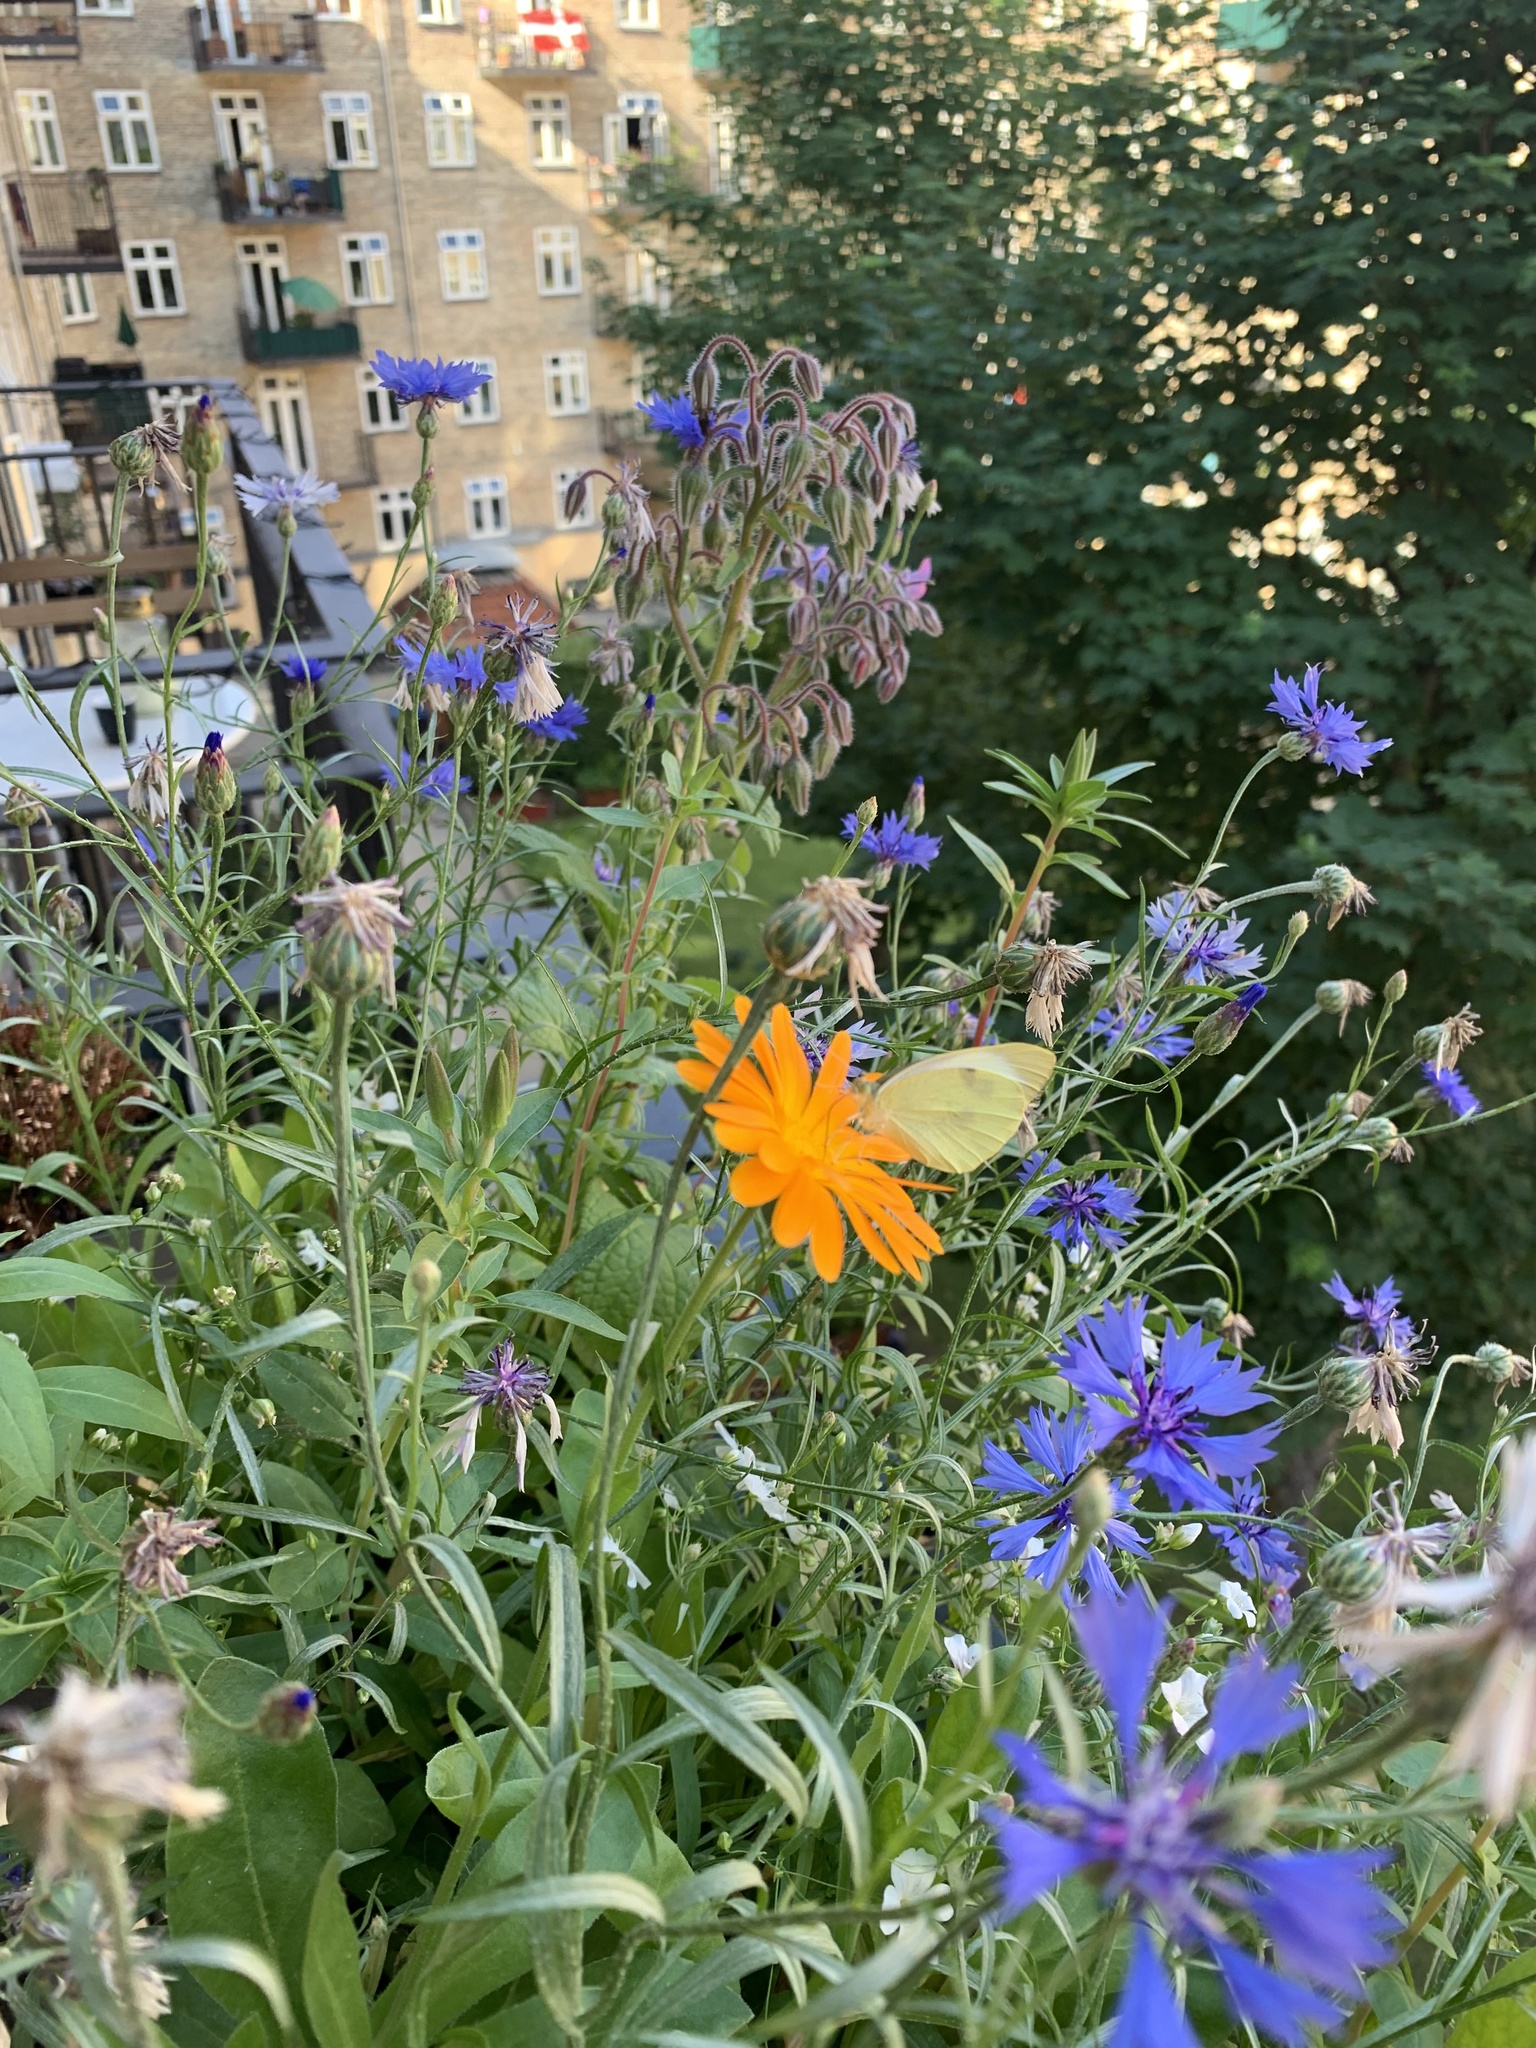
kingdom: Animalia
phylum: Arthropoda
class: Insecta
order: Lepidoptera
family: Pieridae
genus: Pieris
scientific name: Pieris brassicae
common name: Large white
